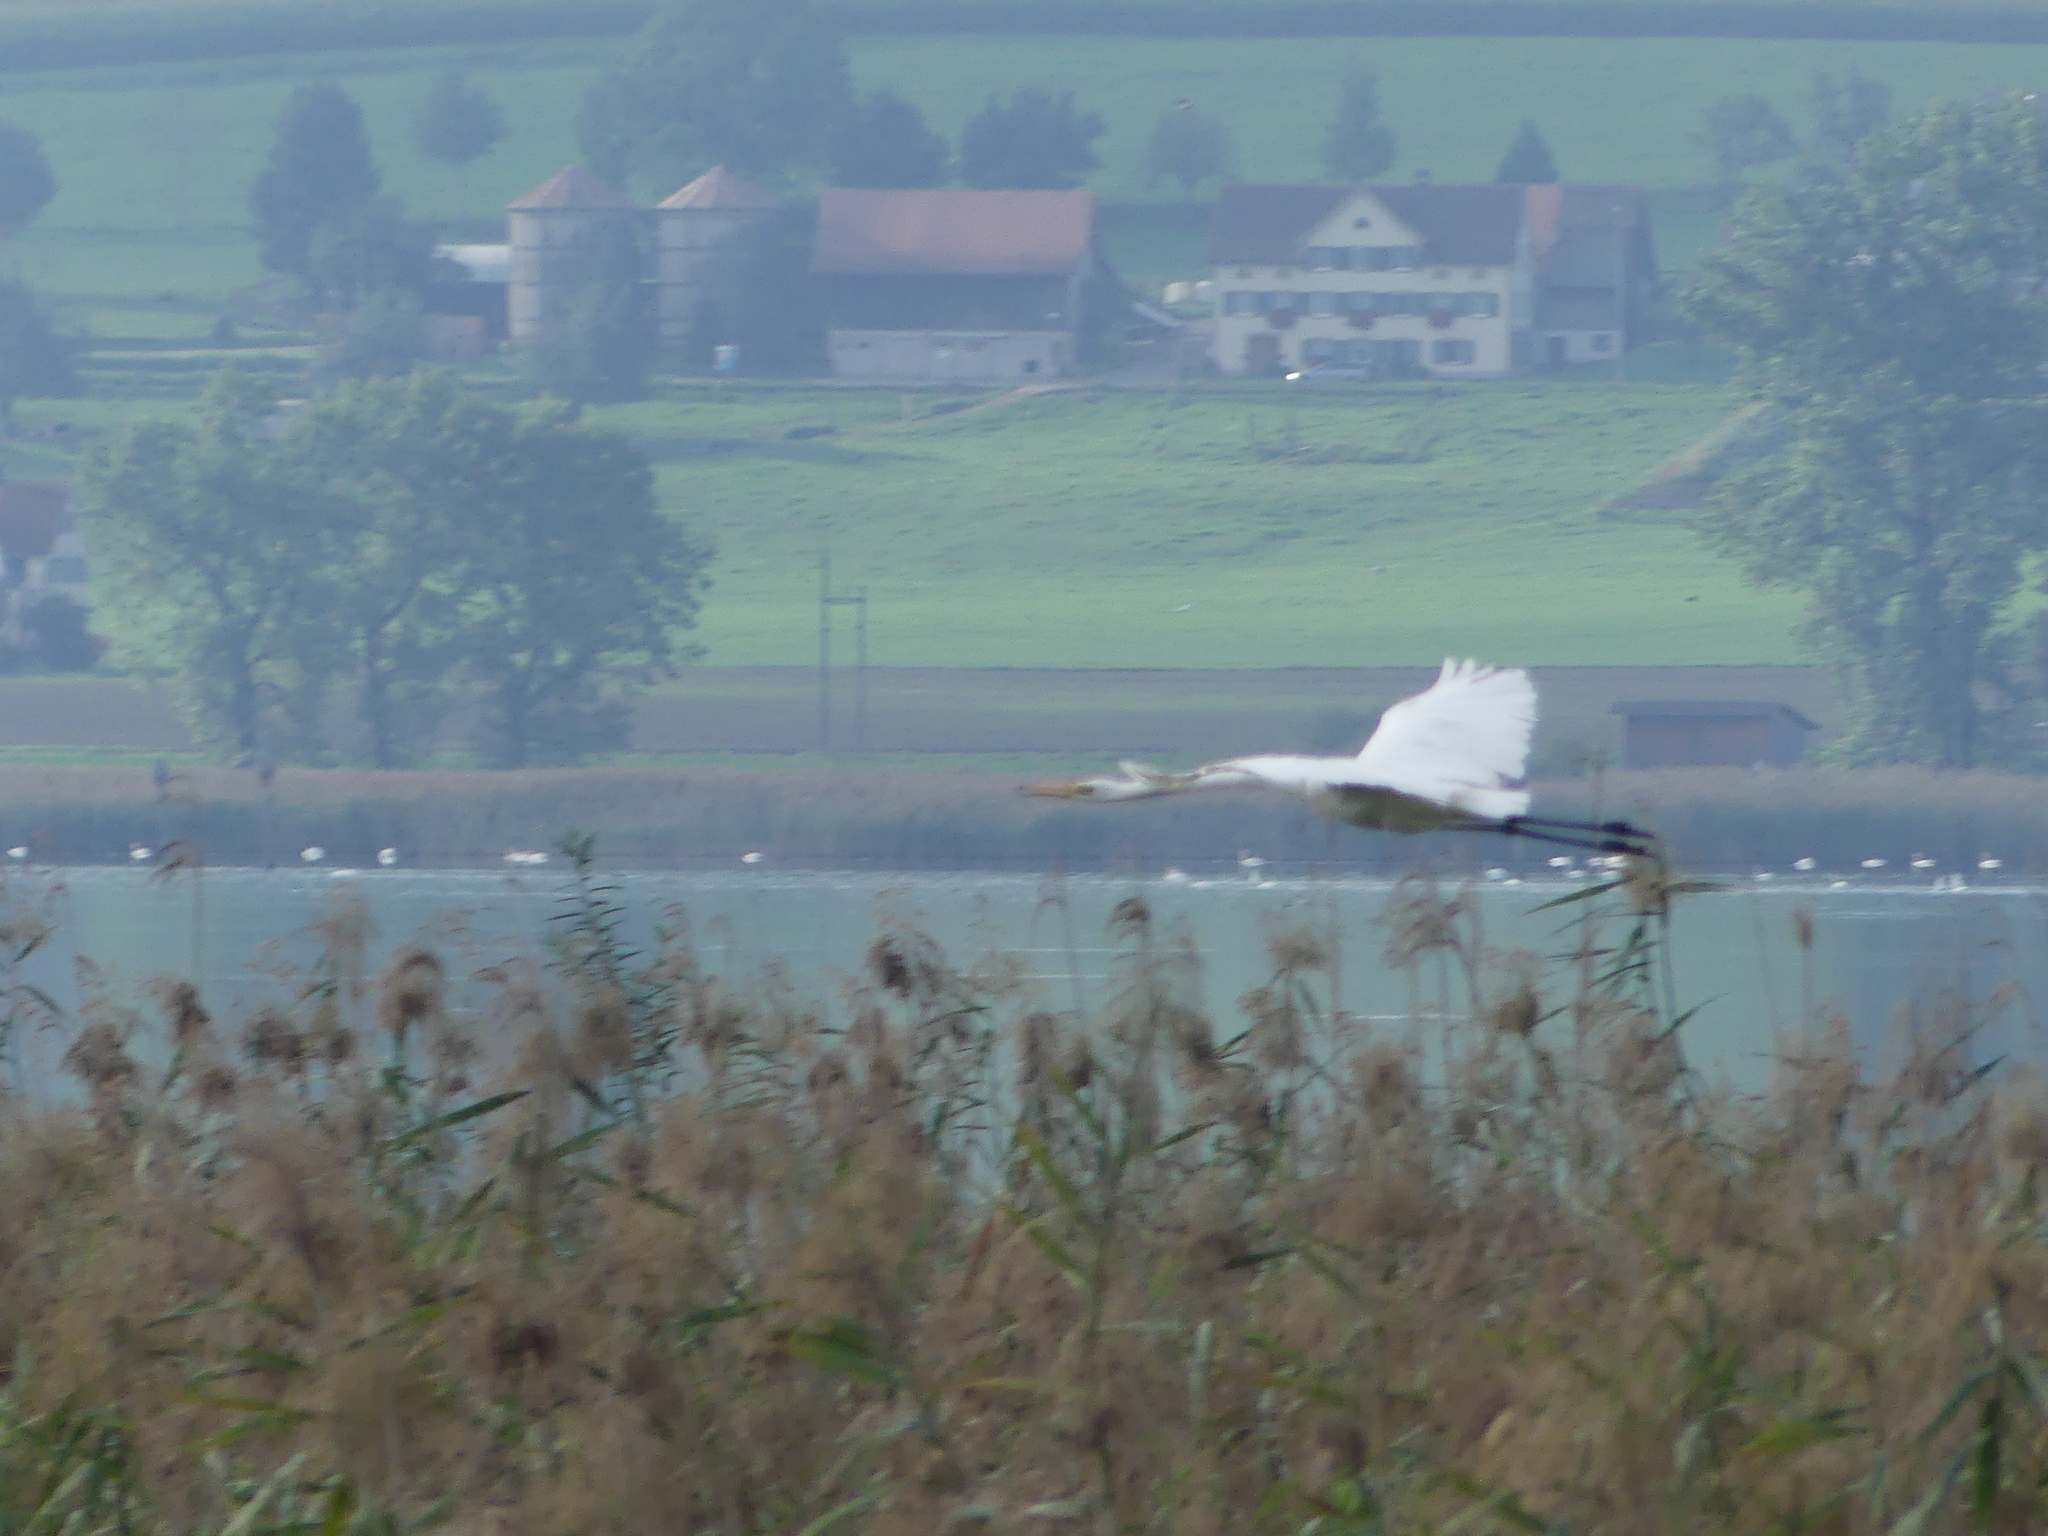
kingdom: Animalia
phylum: Chordata
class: Aves
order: Pelecaniformes
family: Ardeidae
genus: Ardea
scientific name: Ardea alba
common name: Great egret
